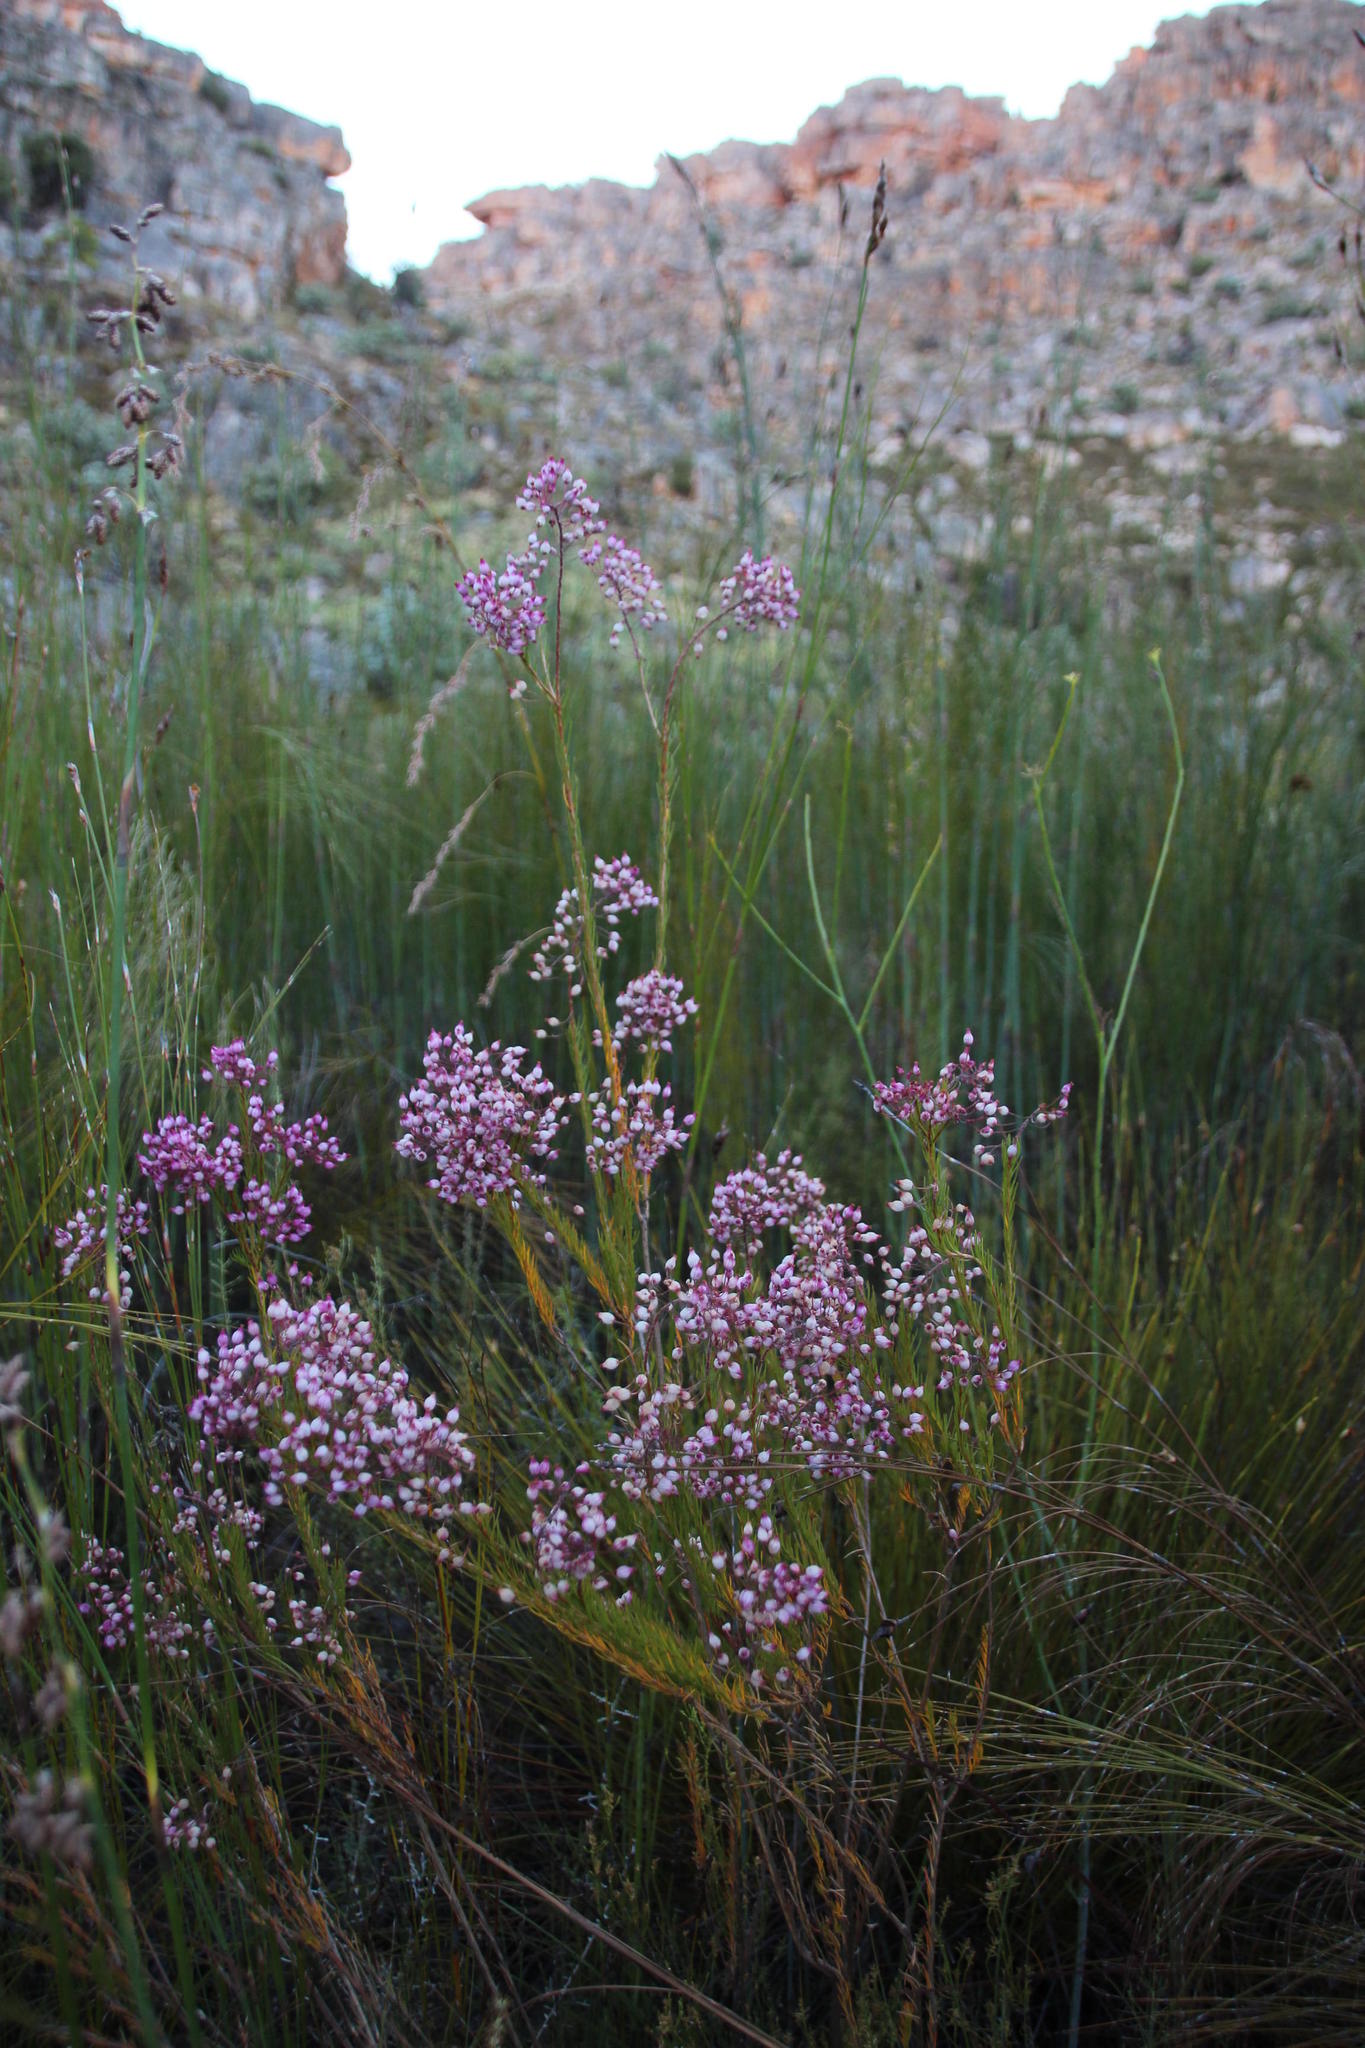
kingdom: Plantae
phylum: Tracheophyta
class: Magnoliopsida
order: Ericales
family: Ericaceae
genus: Erica
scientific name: Erica inflata
